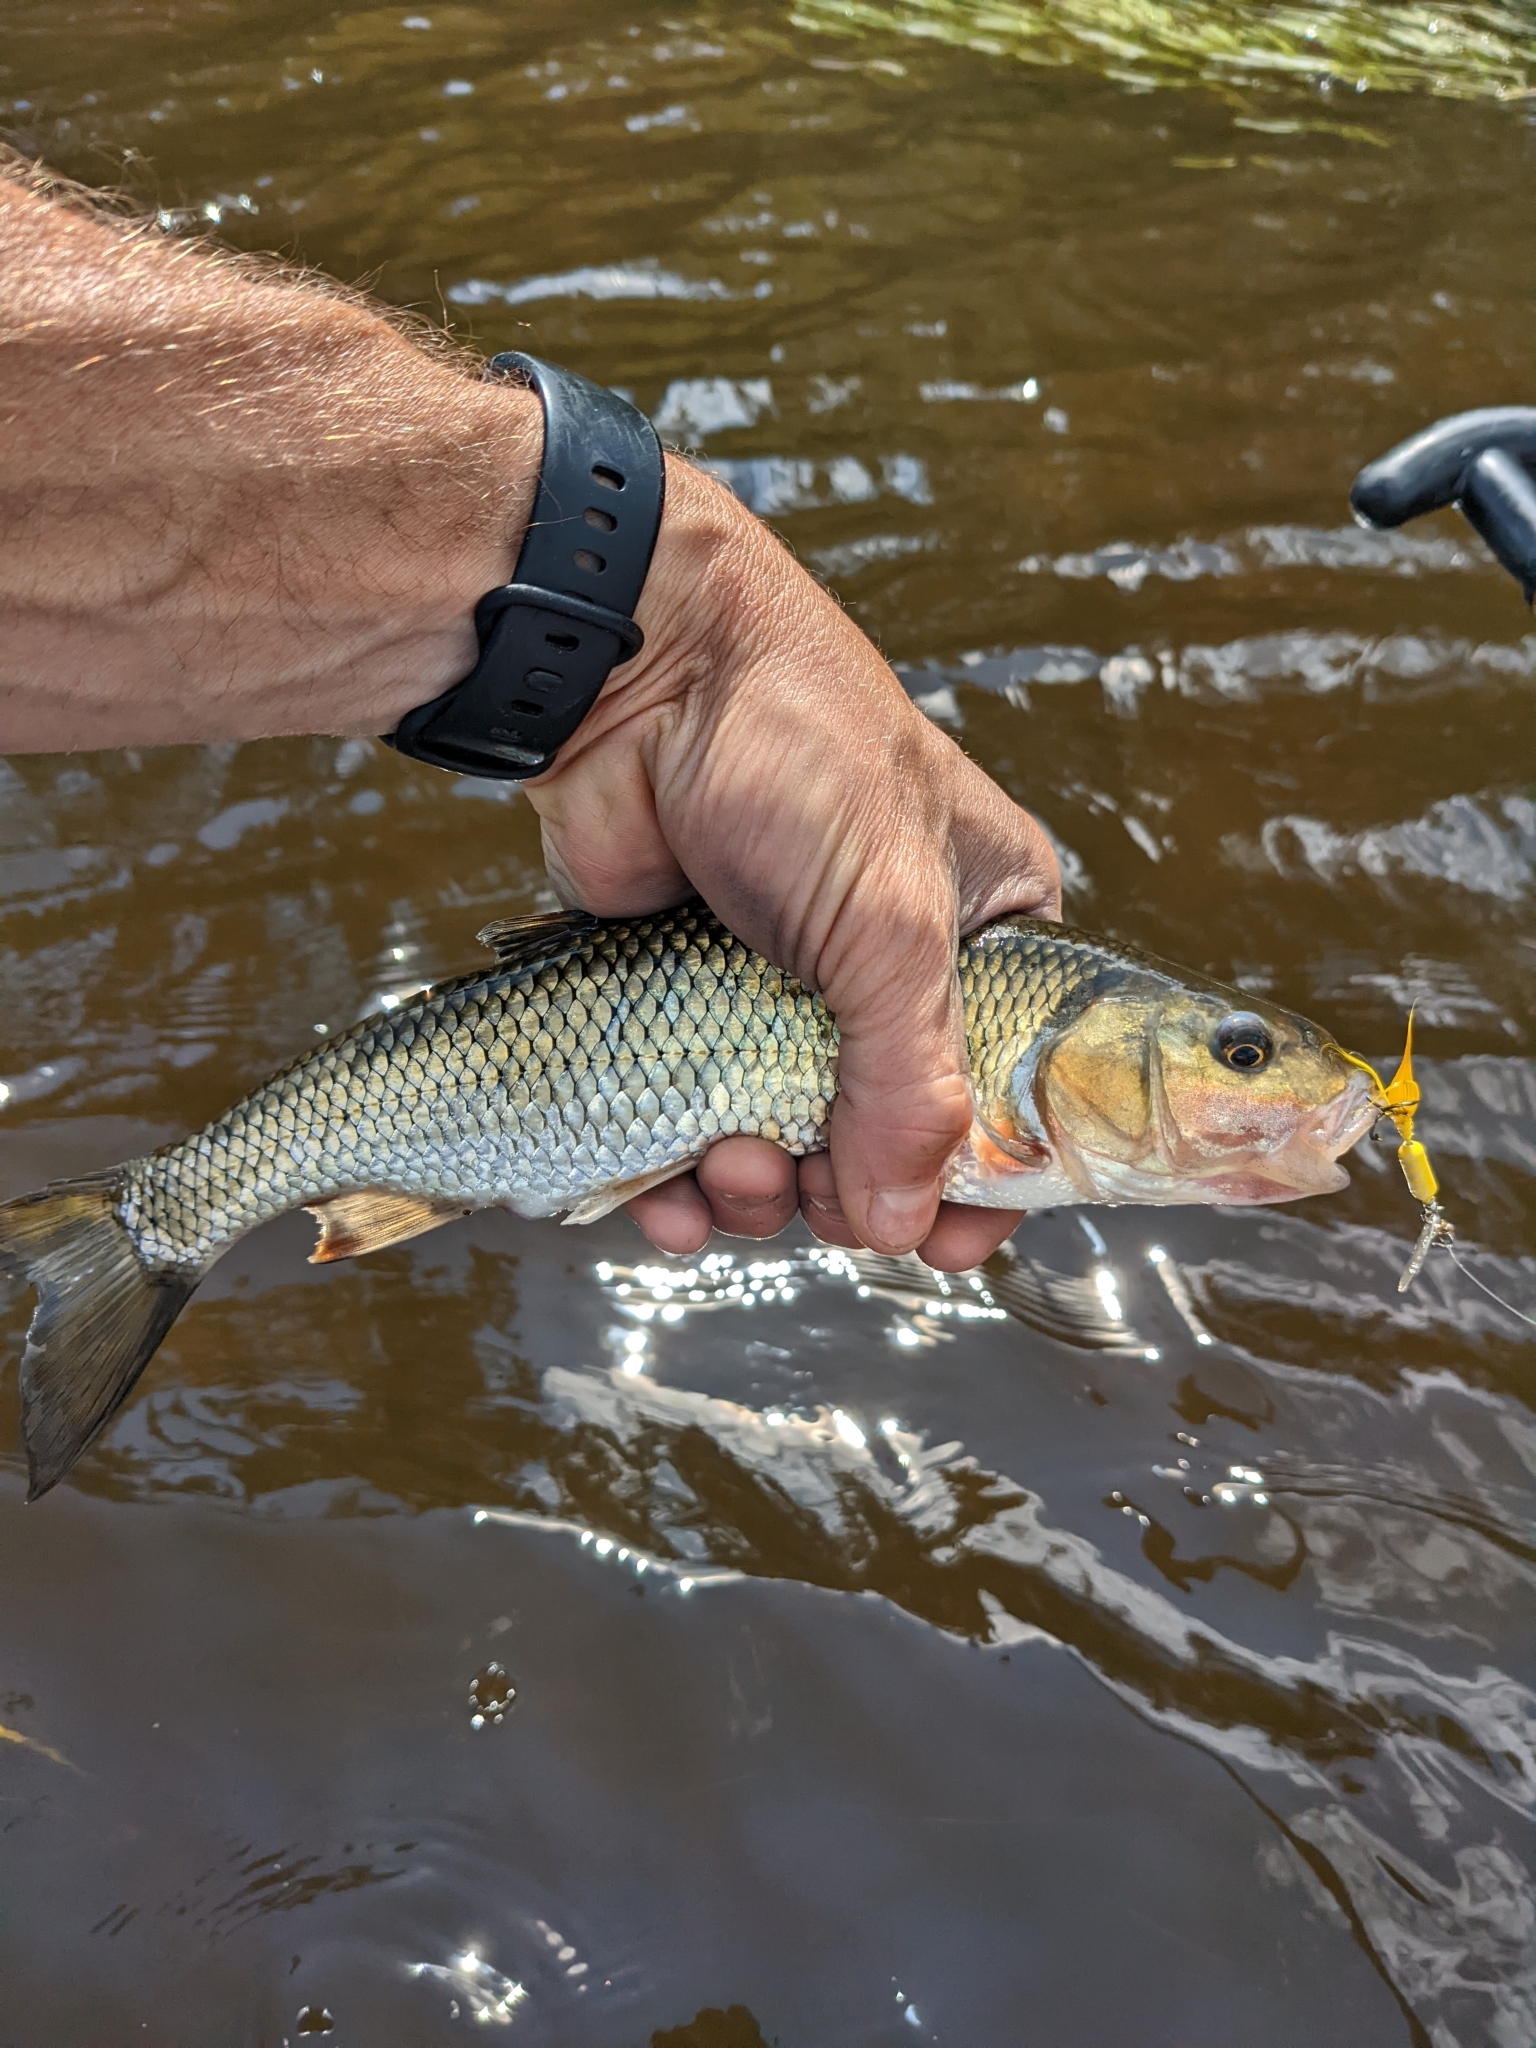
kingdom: Animalia
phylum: Chordata
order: Cypriniformes
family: Cyprinidae
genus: Semotilus
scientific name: Semotilus corporalis
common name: Fallfish
